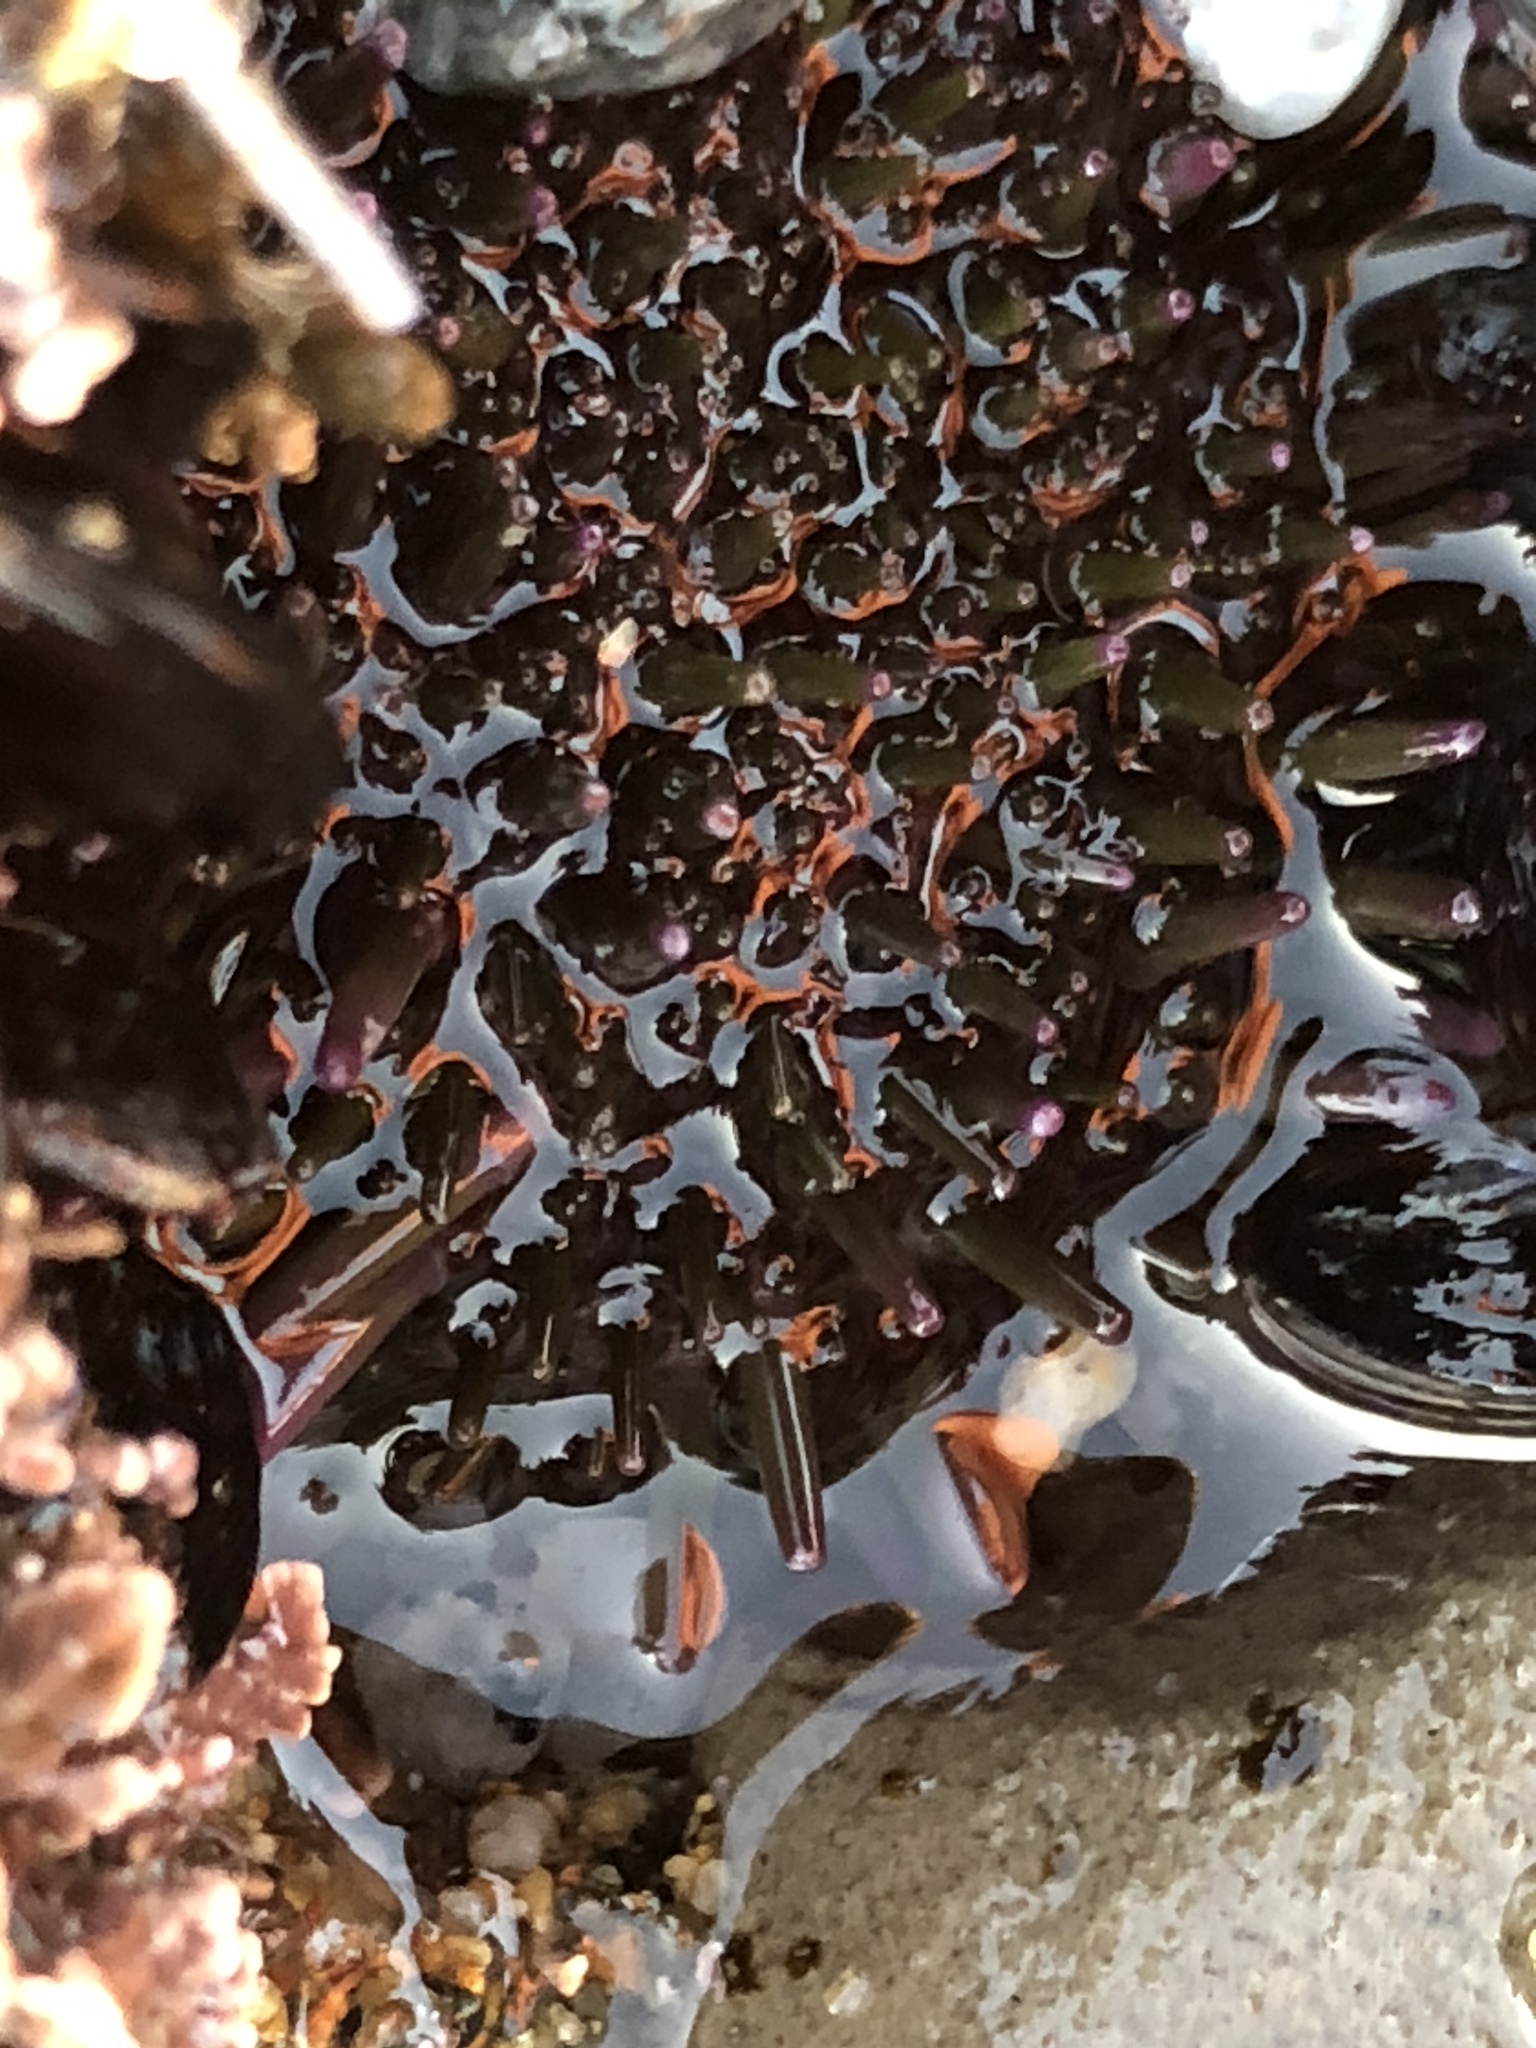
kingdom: Animalia
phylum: Echinodermata
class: Echinoidea
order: Camarodonta
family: Strongylocentrotidae
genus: Strongylocentrotus
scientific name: Strongylocentrotus purpuratus
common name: Purple sea urchin
